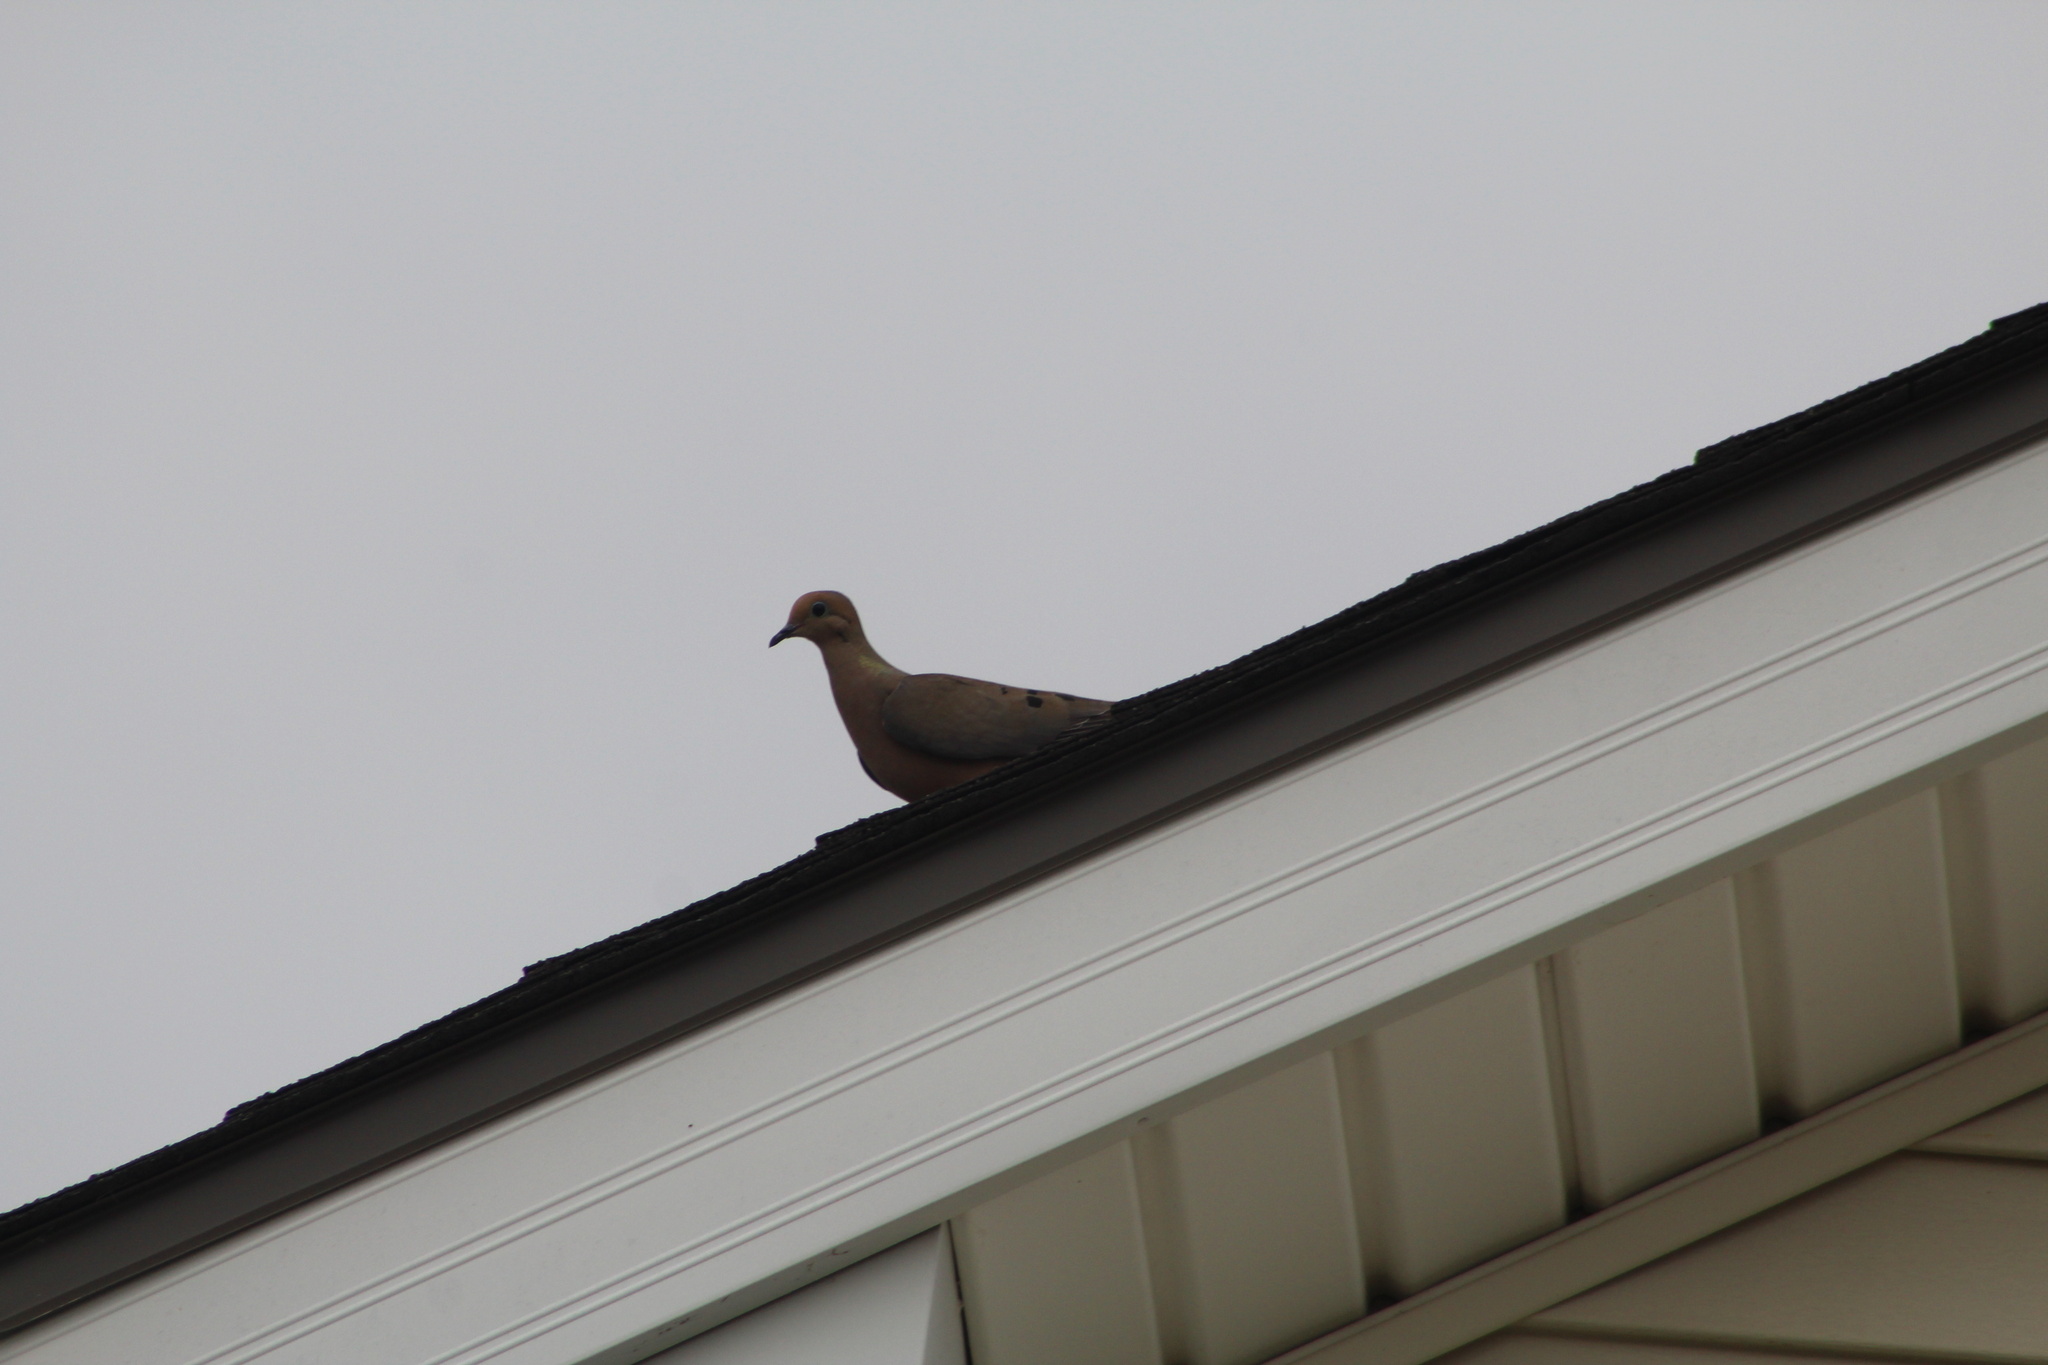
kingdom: Animalia
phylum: Chordata
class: Aves
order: Columbiformes
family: Columbidae
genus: Zenaida
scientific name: Zenaida macroura
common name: Mourning dove
